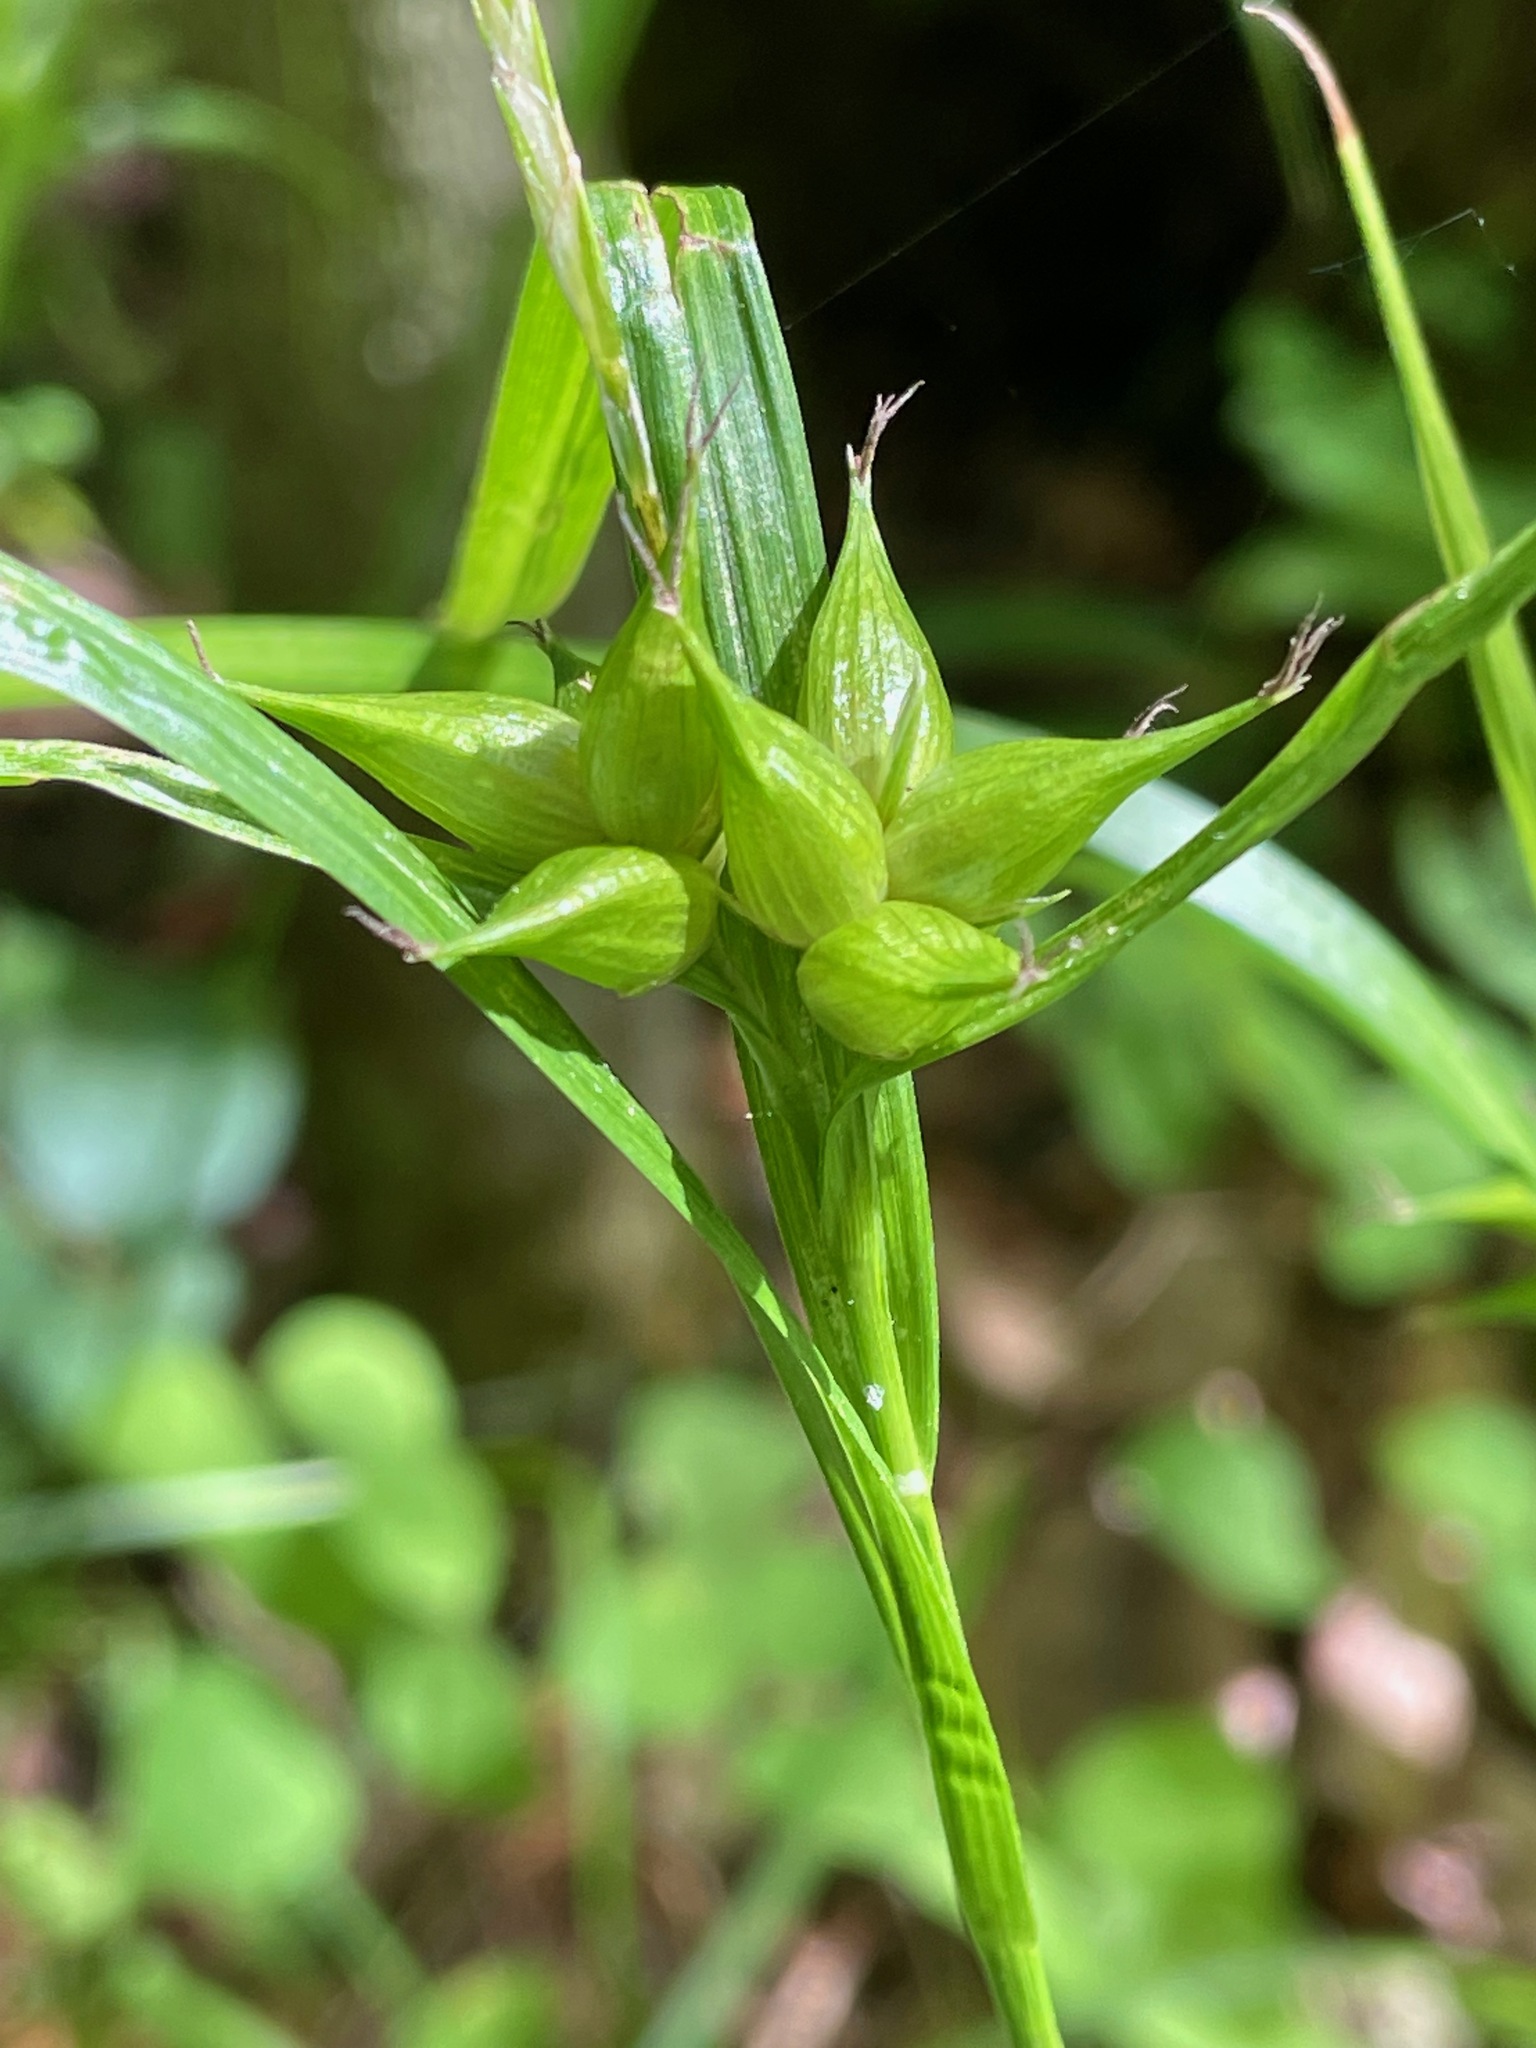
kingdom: Plantae
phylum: Tracheophyta
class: Liliopsida
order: Poales
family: Cyperaceae
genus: Carex
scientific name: Carex intumescens
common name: Greater bladder sedge
